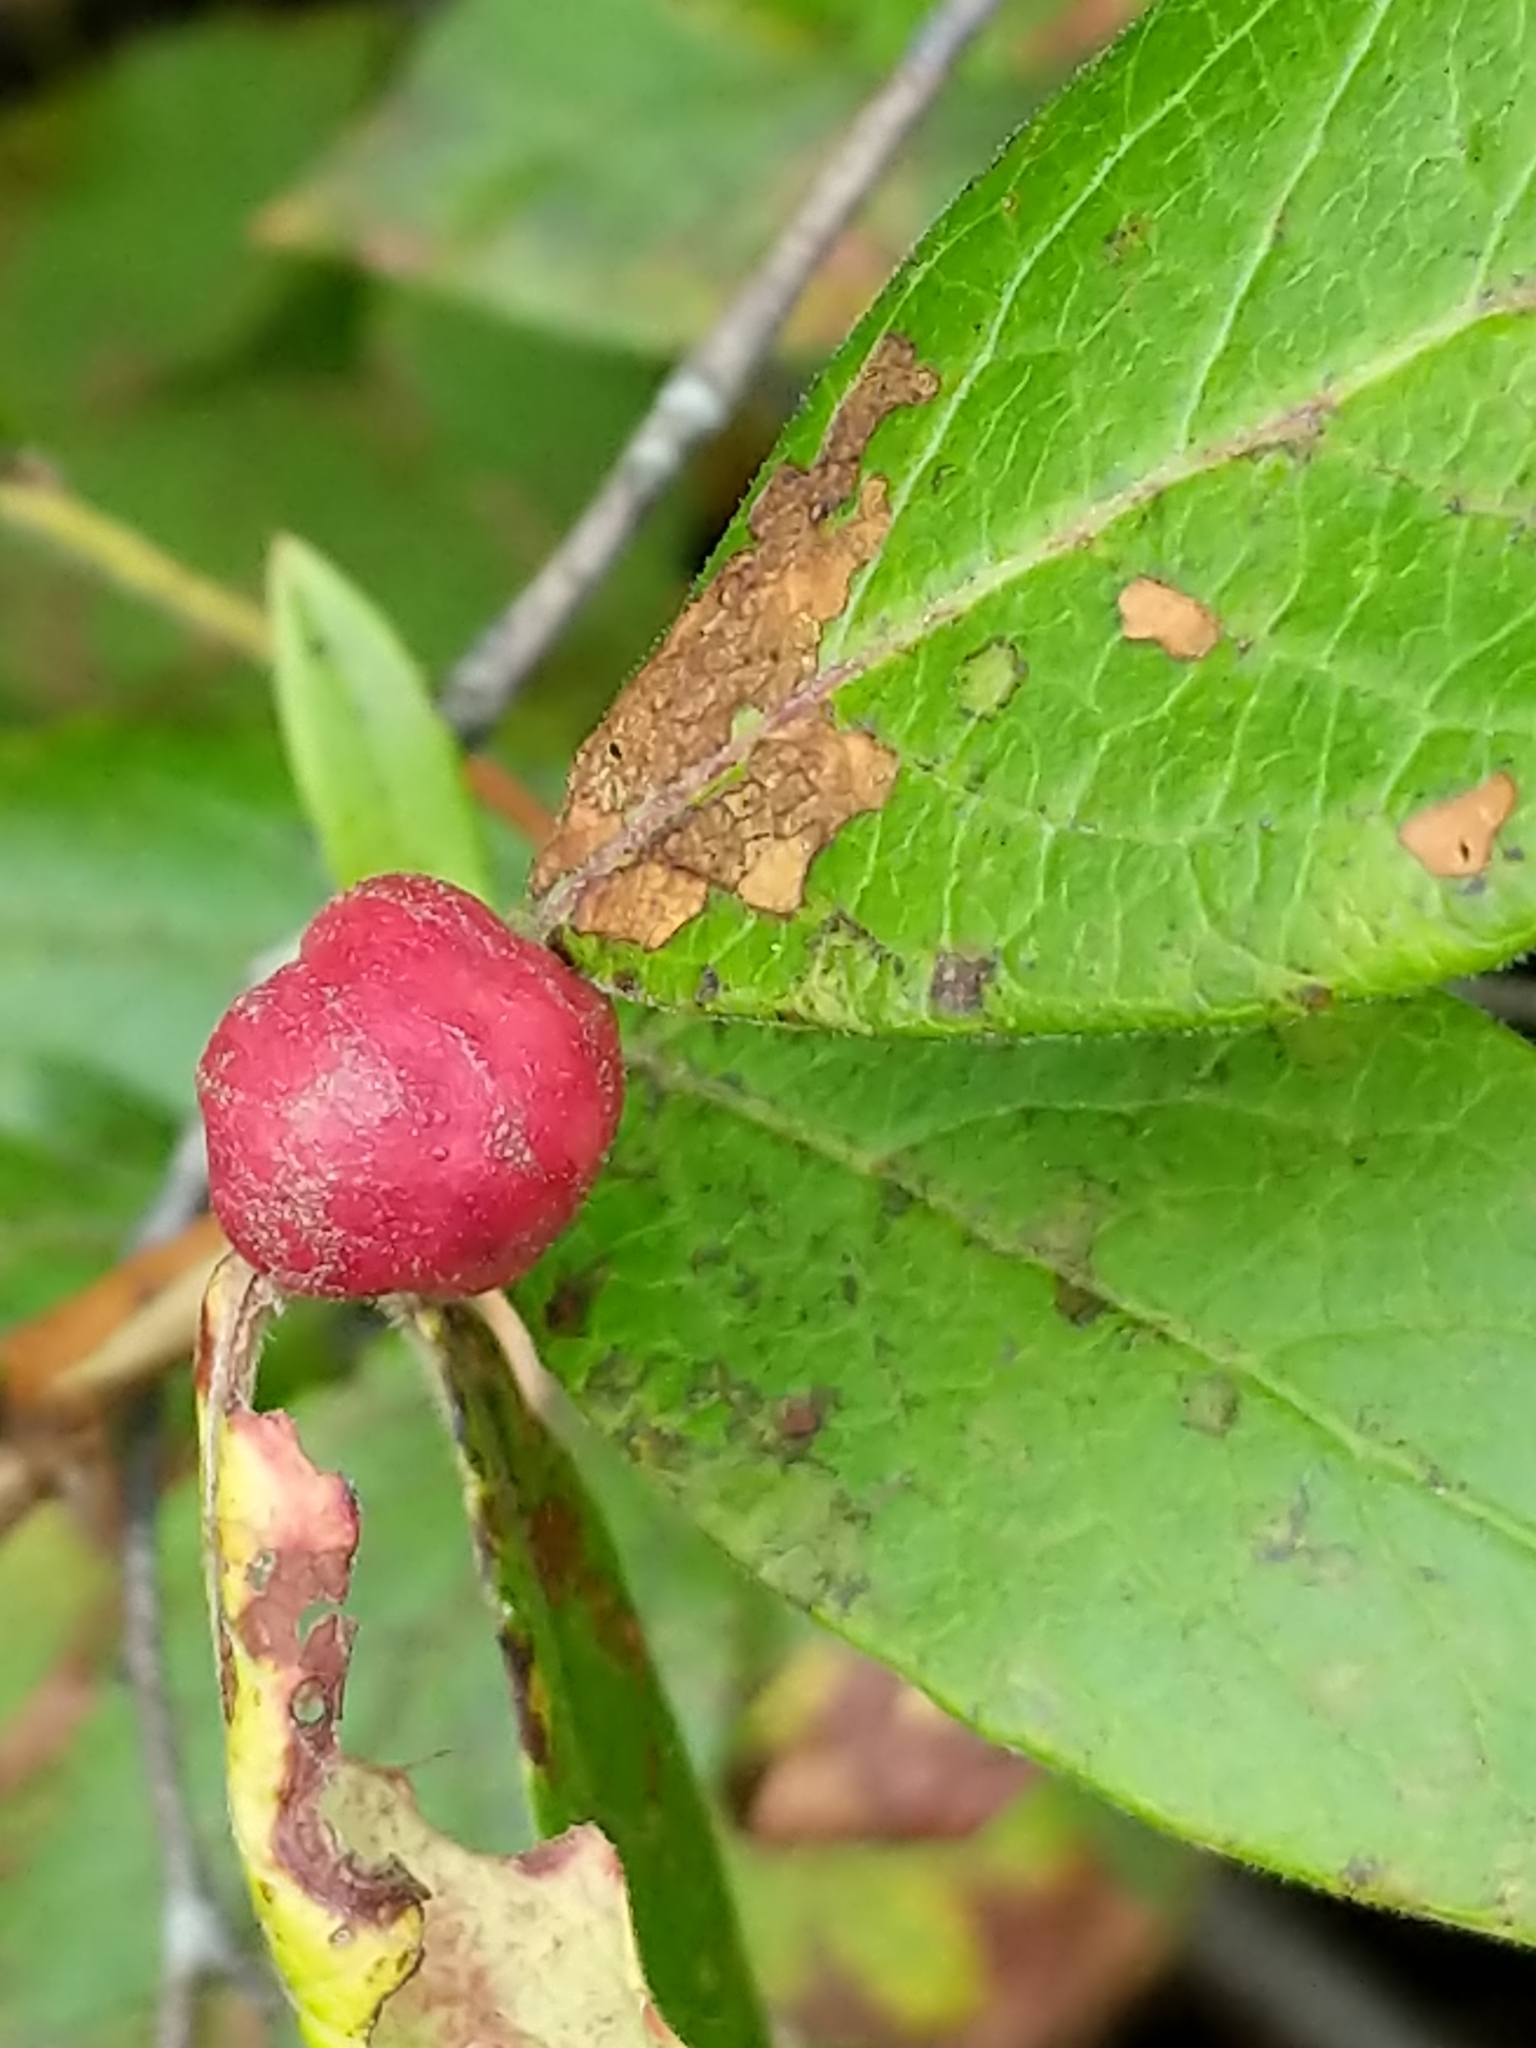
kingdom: Animalia
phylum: Arthropoda
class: Insecta
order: Hymenoptera
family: Pteromalidae
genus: Hemadas
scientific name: Hemadas nubilipennis
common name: Blueberry stem gall wasp
